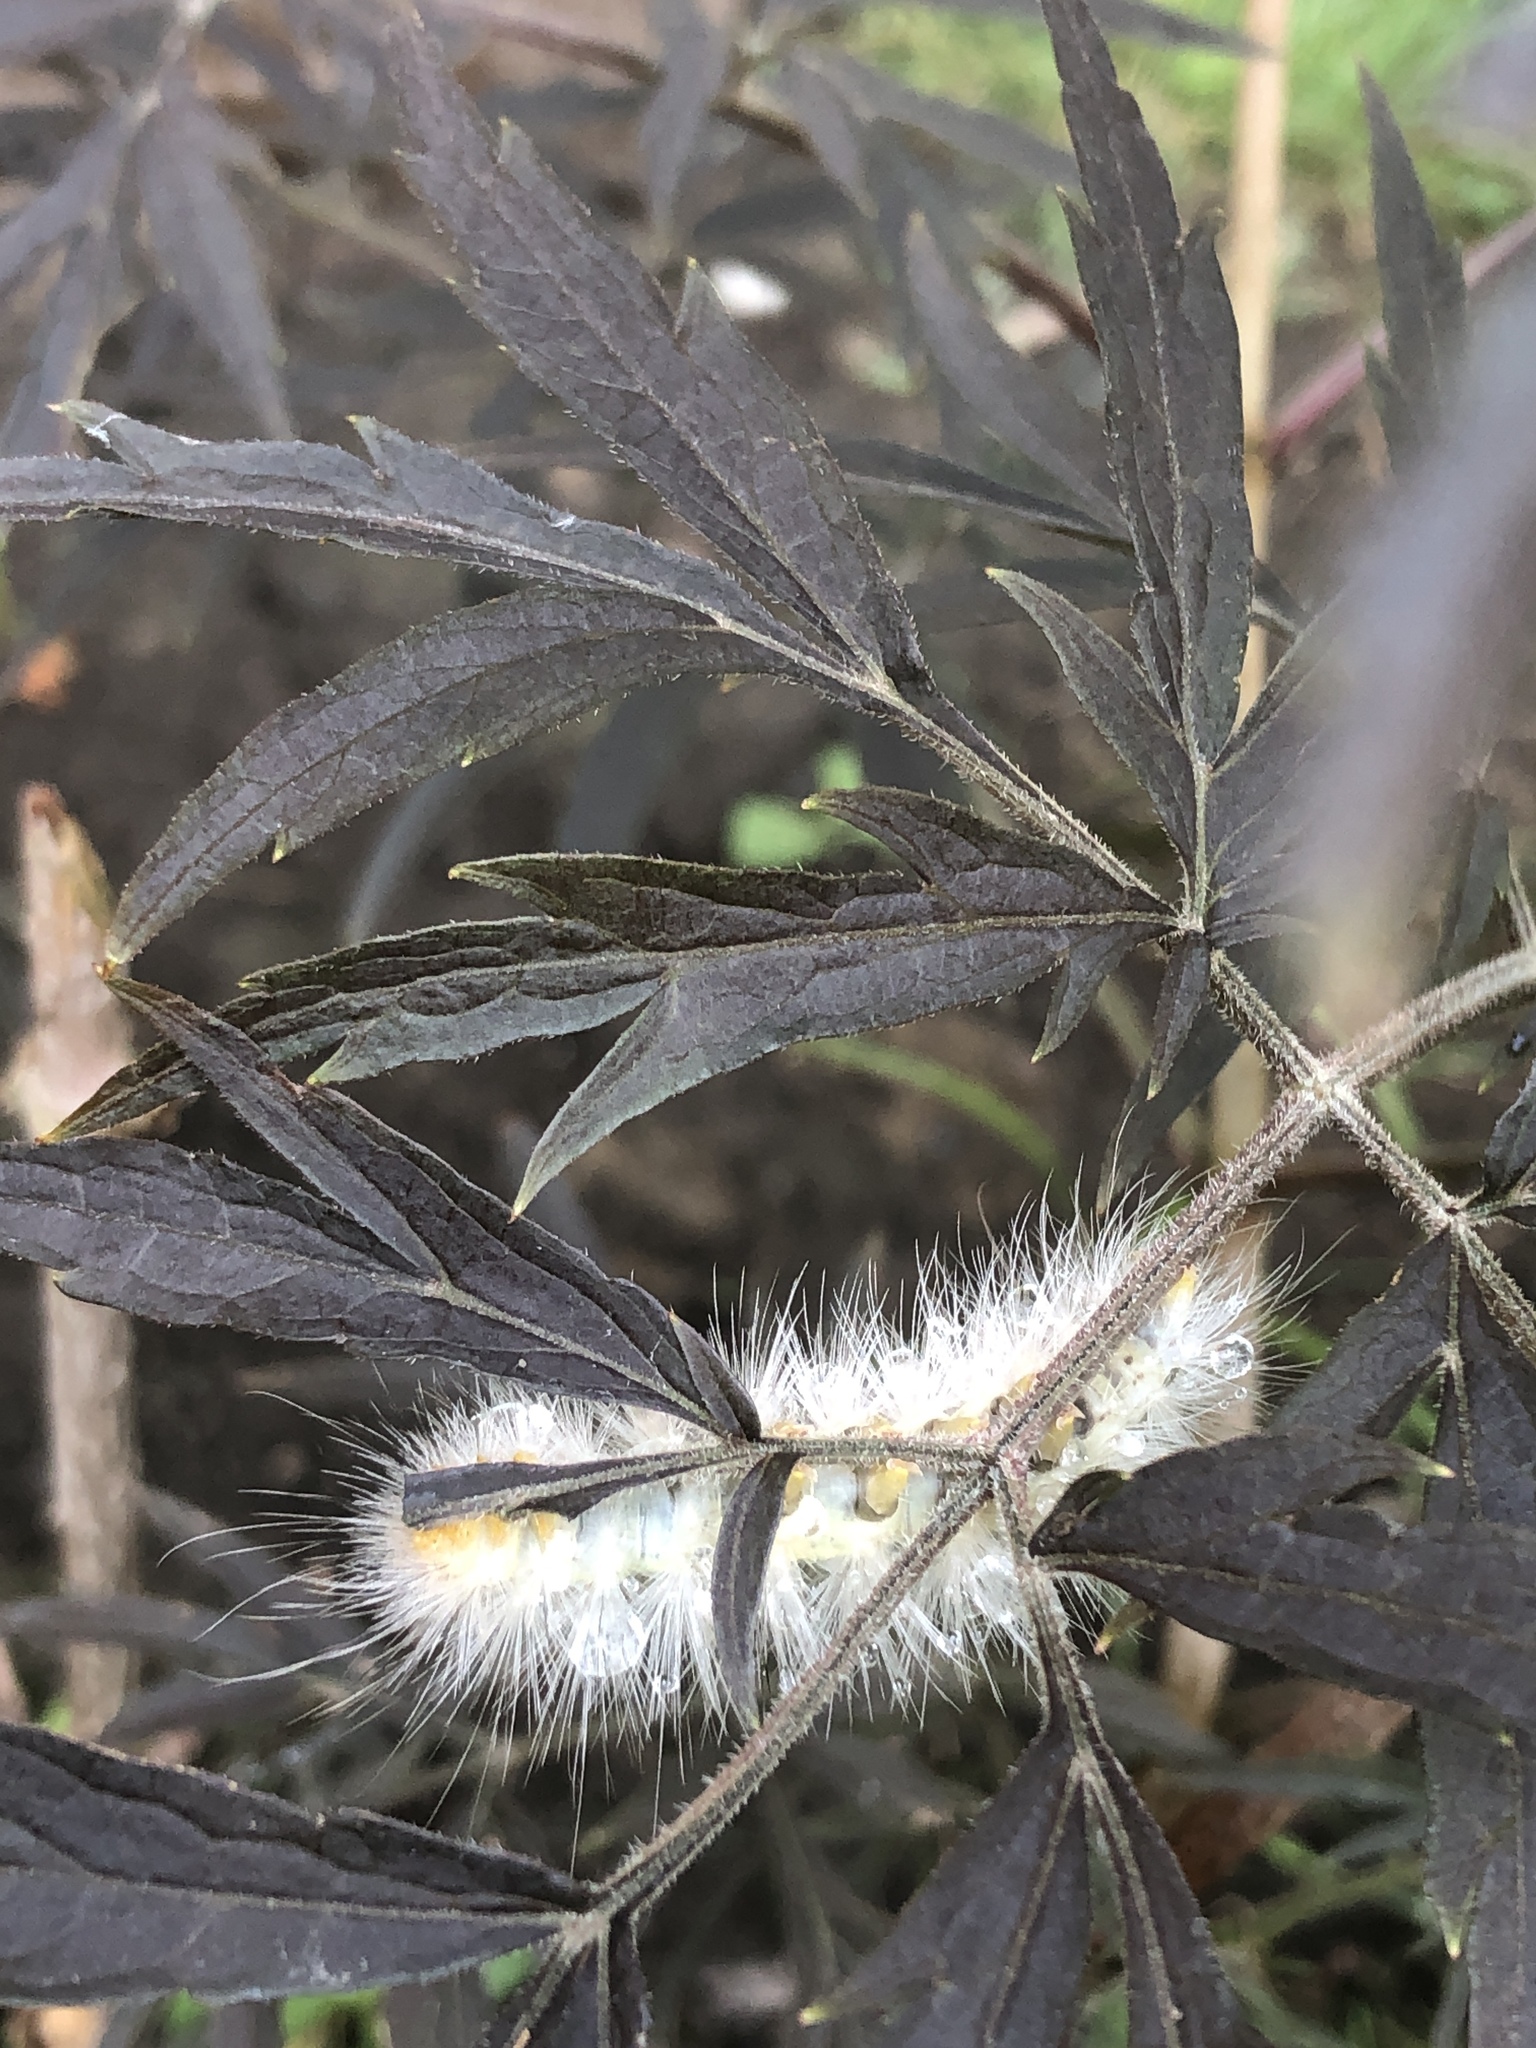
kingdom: Animalia
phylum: Arthropoda
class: Insecta
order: Lepidoptera
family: Erebidae
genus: Spilosoma
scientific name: Spilosoma virginica
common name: Virginia tiger moth
